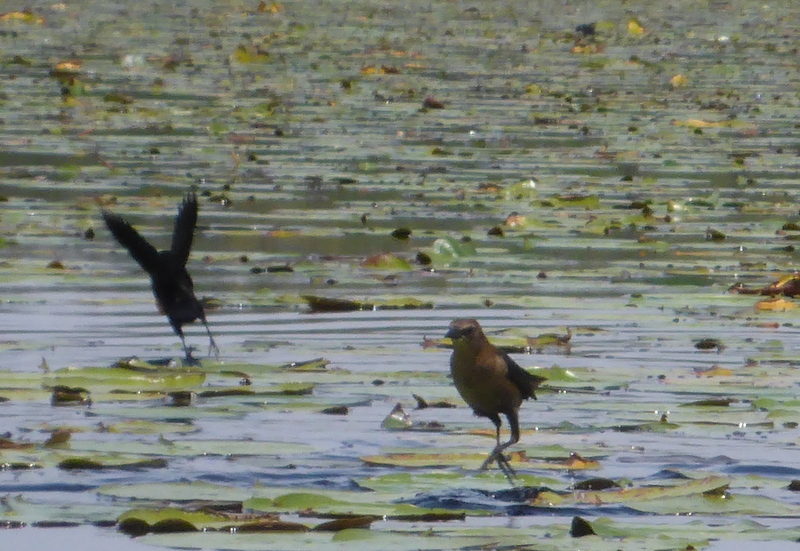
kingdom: Animalia
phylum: Chordata
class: Aves
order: Passeriformes
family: Icteridae
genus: Quiscalus
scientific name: Quiscalus major
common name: Boat-tailed grackle
